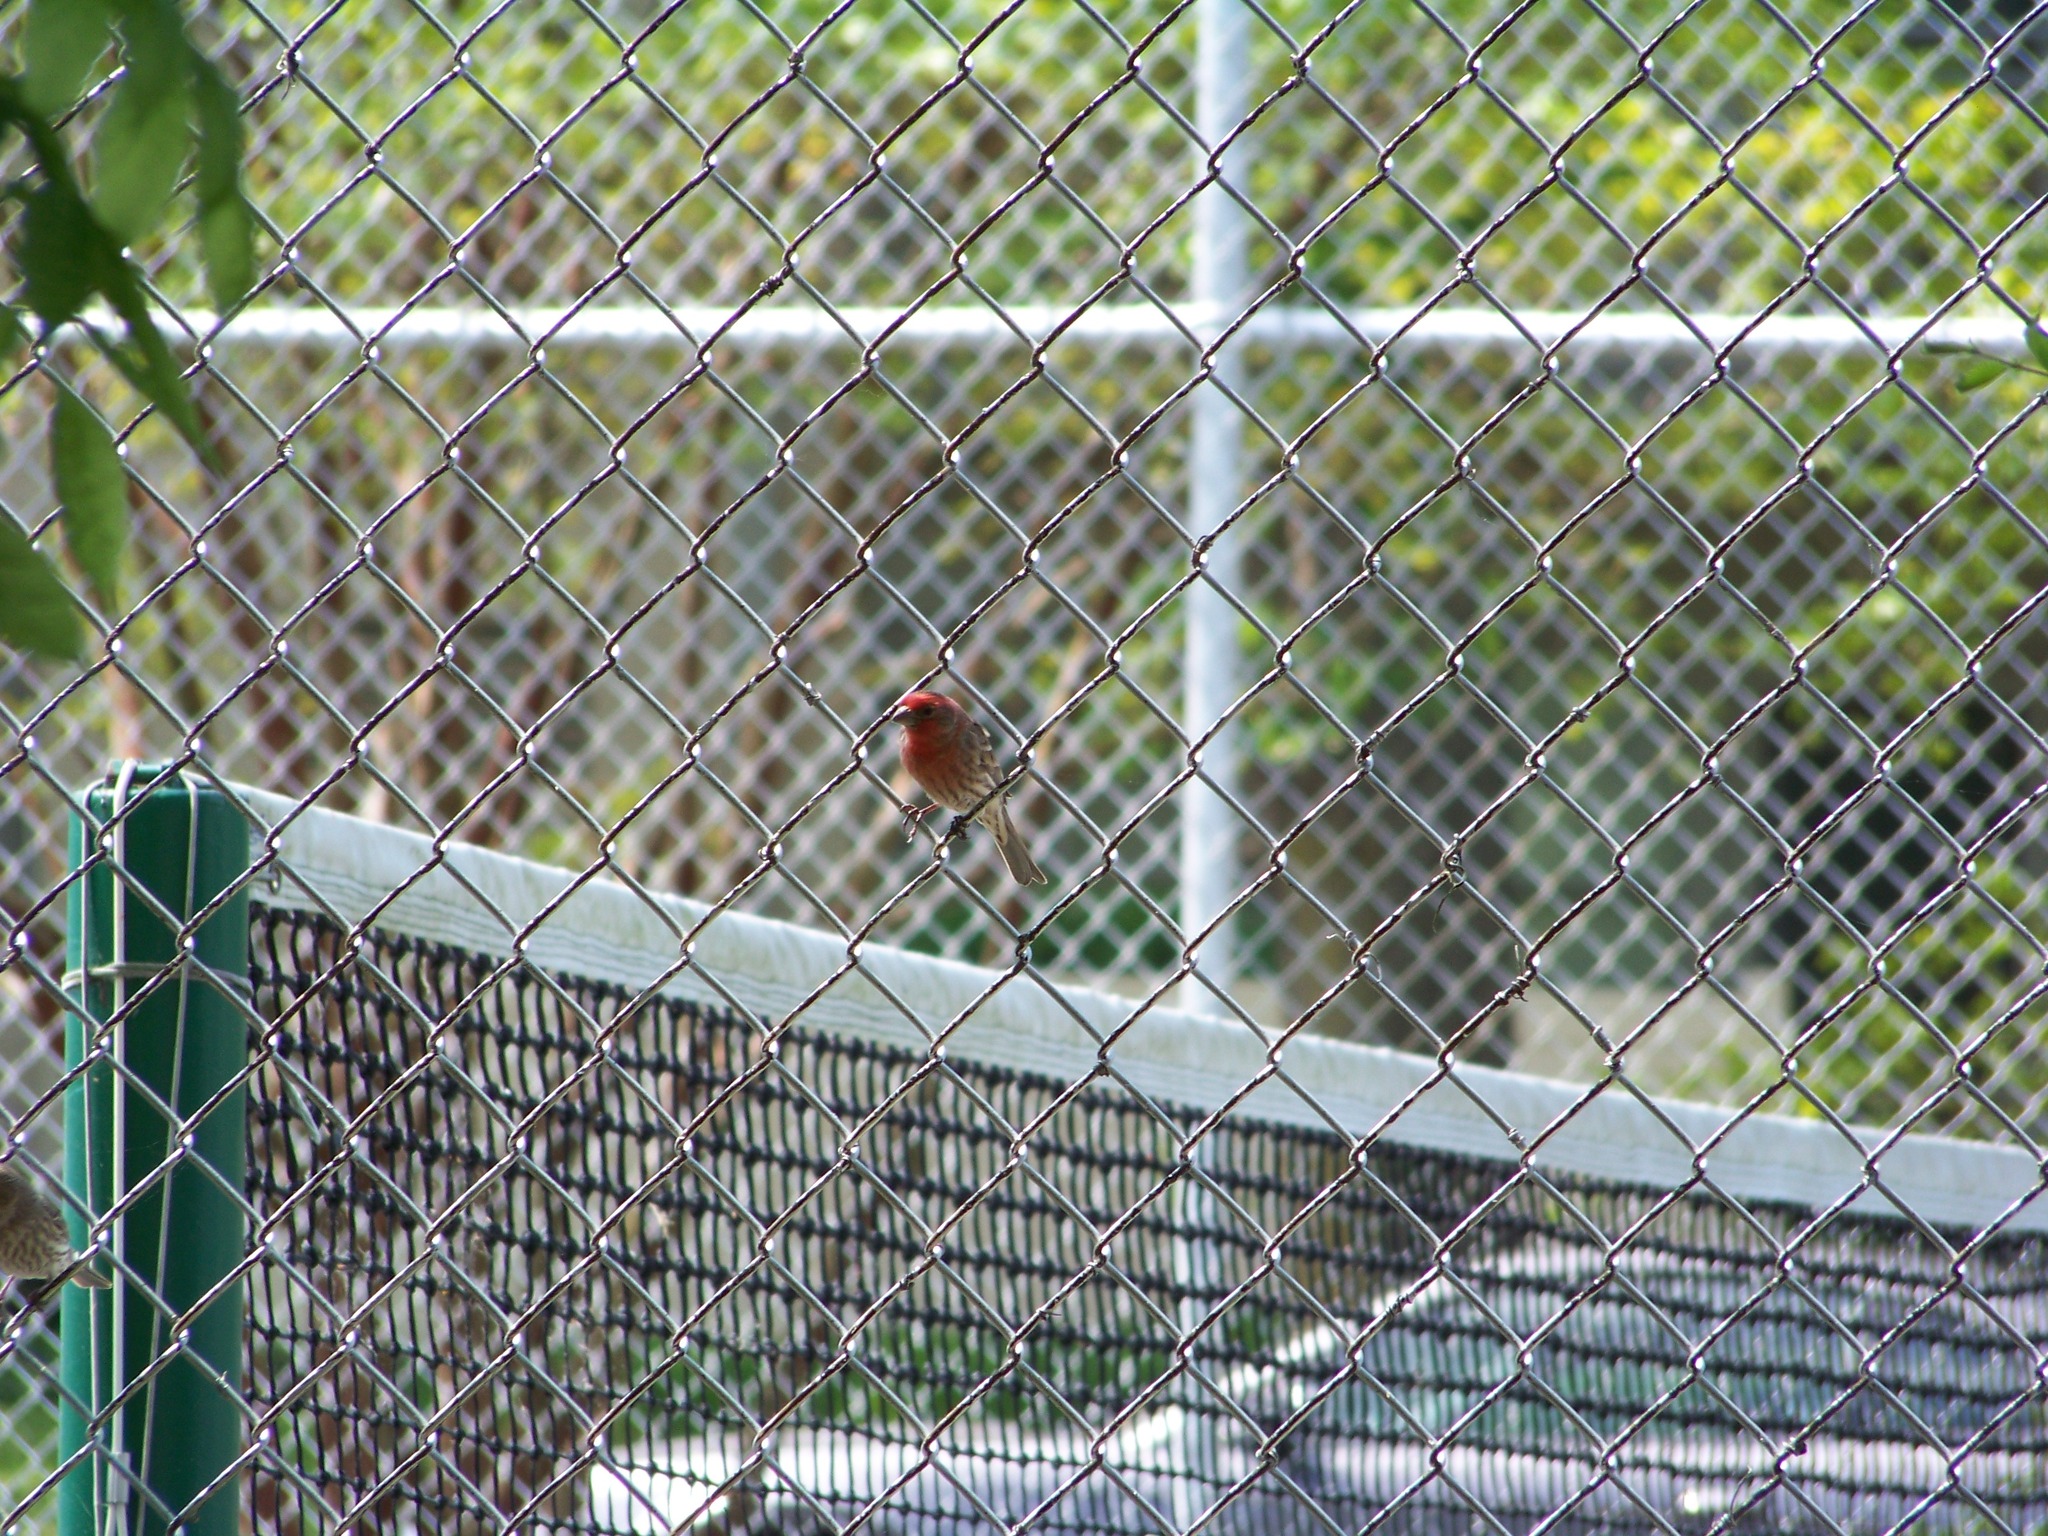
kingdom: Animalia
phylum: Chordata
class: Aves
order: Passeriformes
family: Fringillidae
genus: Haemorhous
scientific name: Haemorhous mexicanus
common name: House finch
